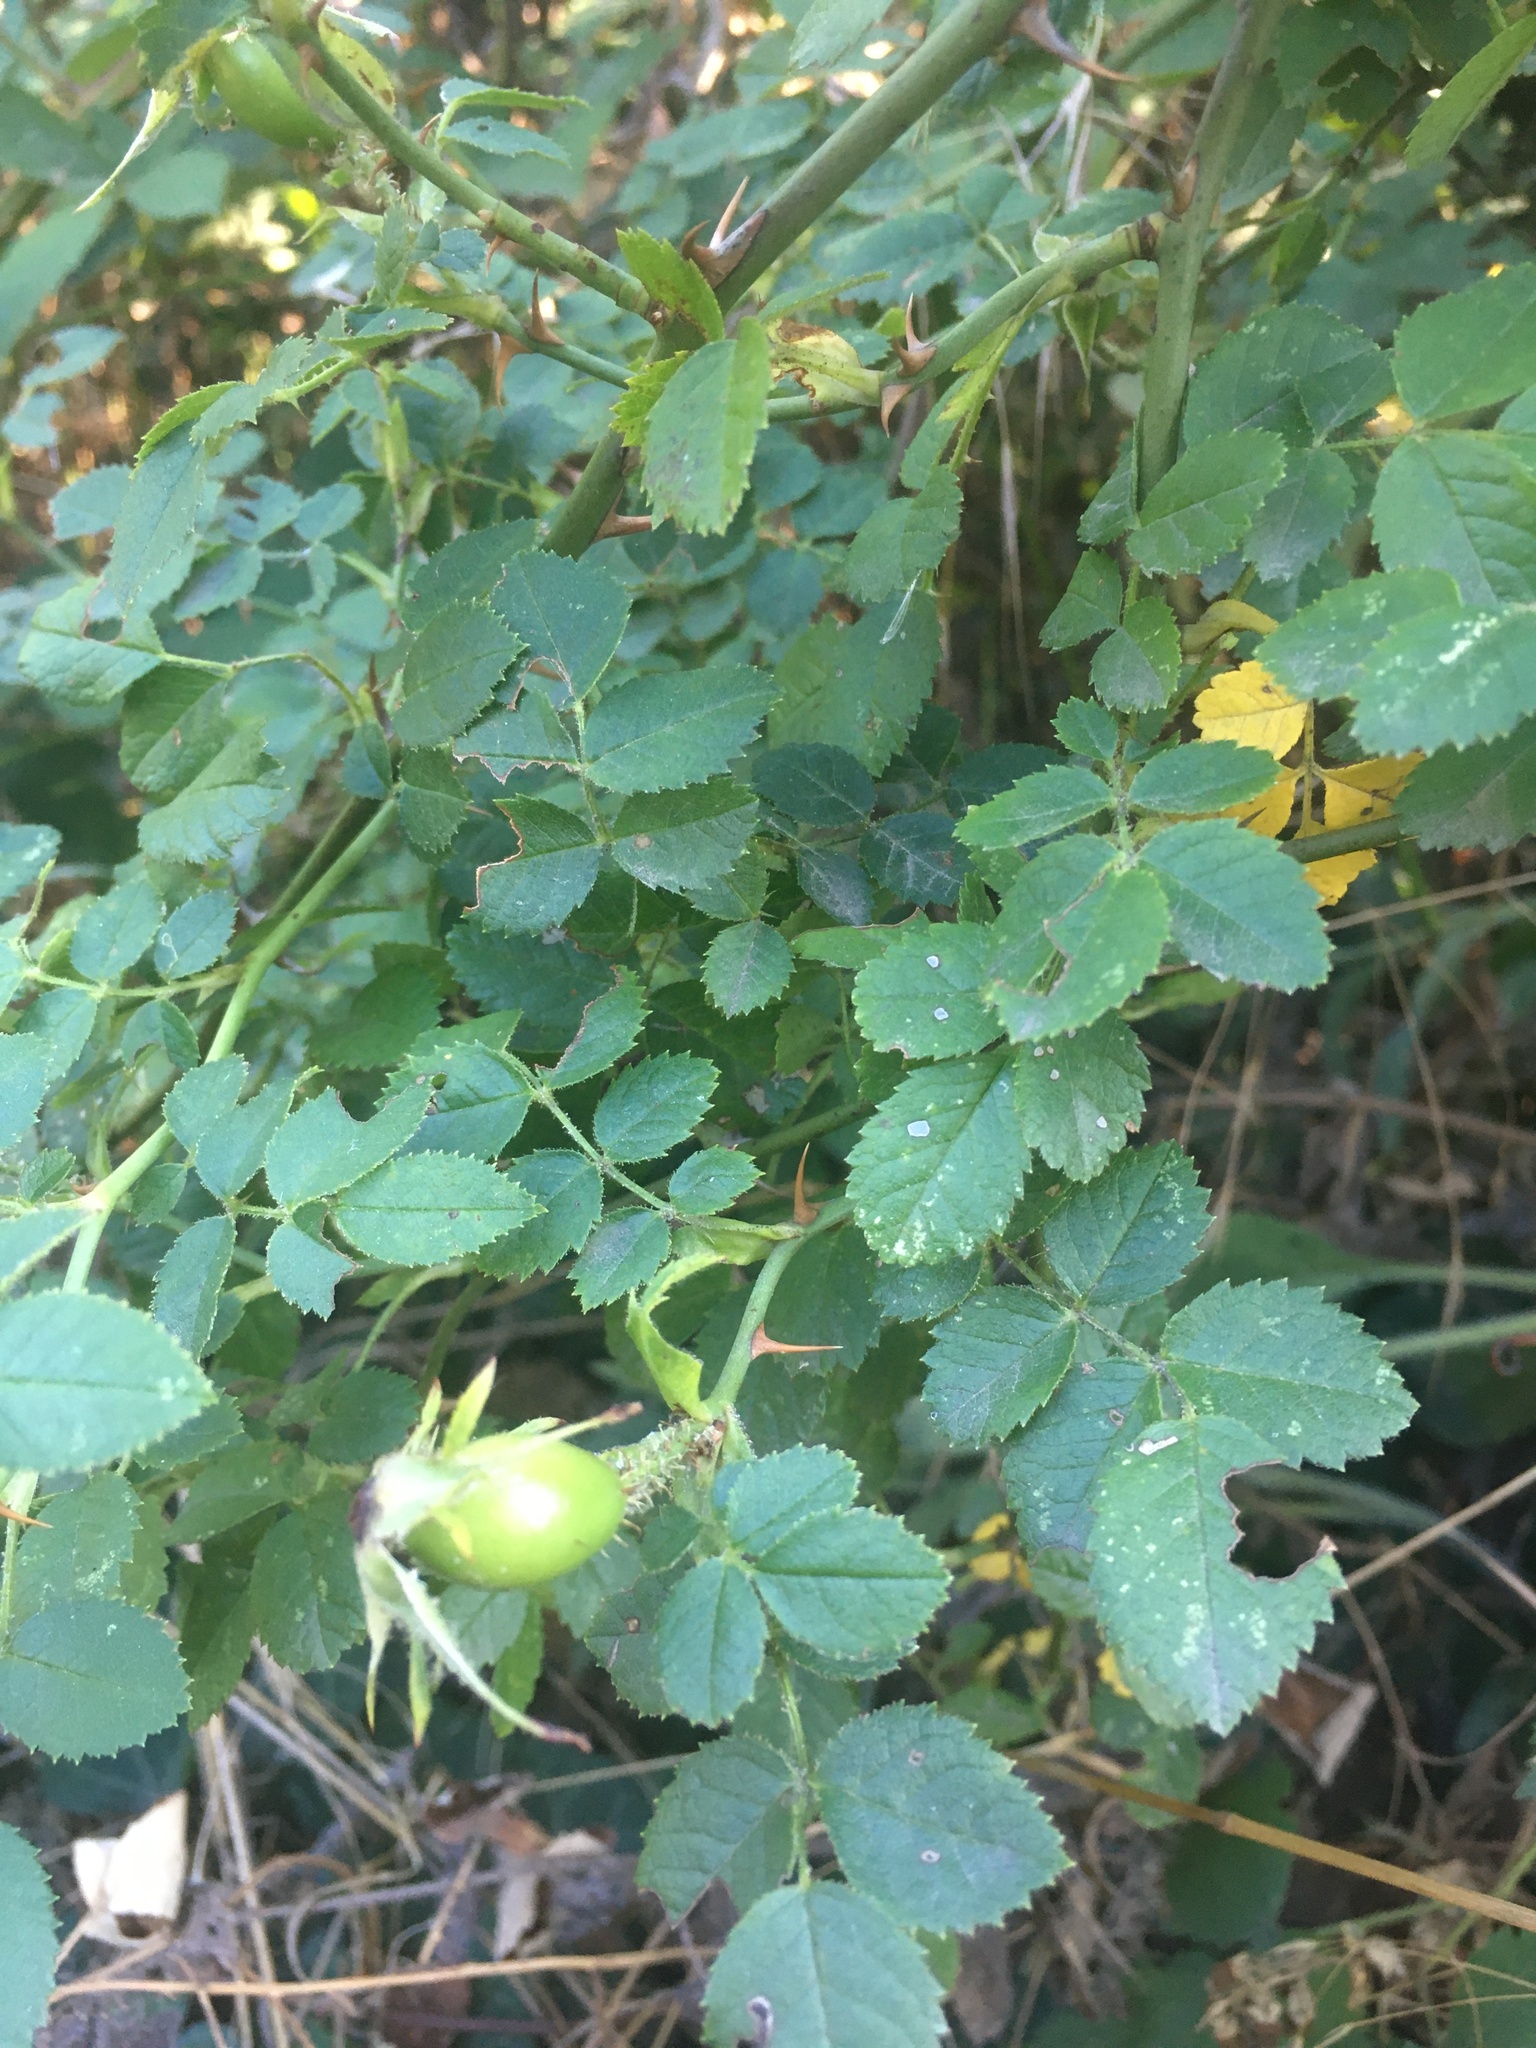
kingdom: Plantae
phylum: Tracheophyta
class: Magnoliopsida
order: Rosales
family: Rosaceae
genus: Rosa
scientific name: Rosa
